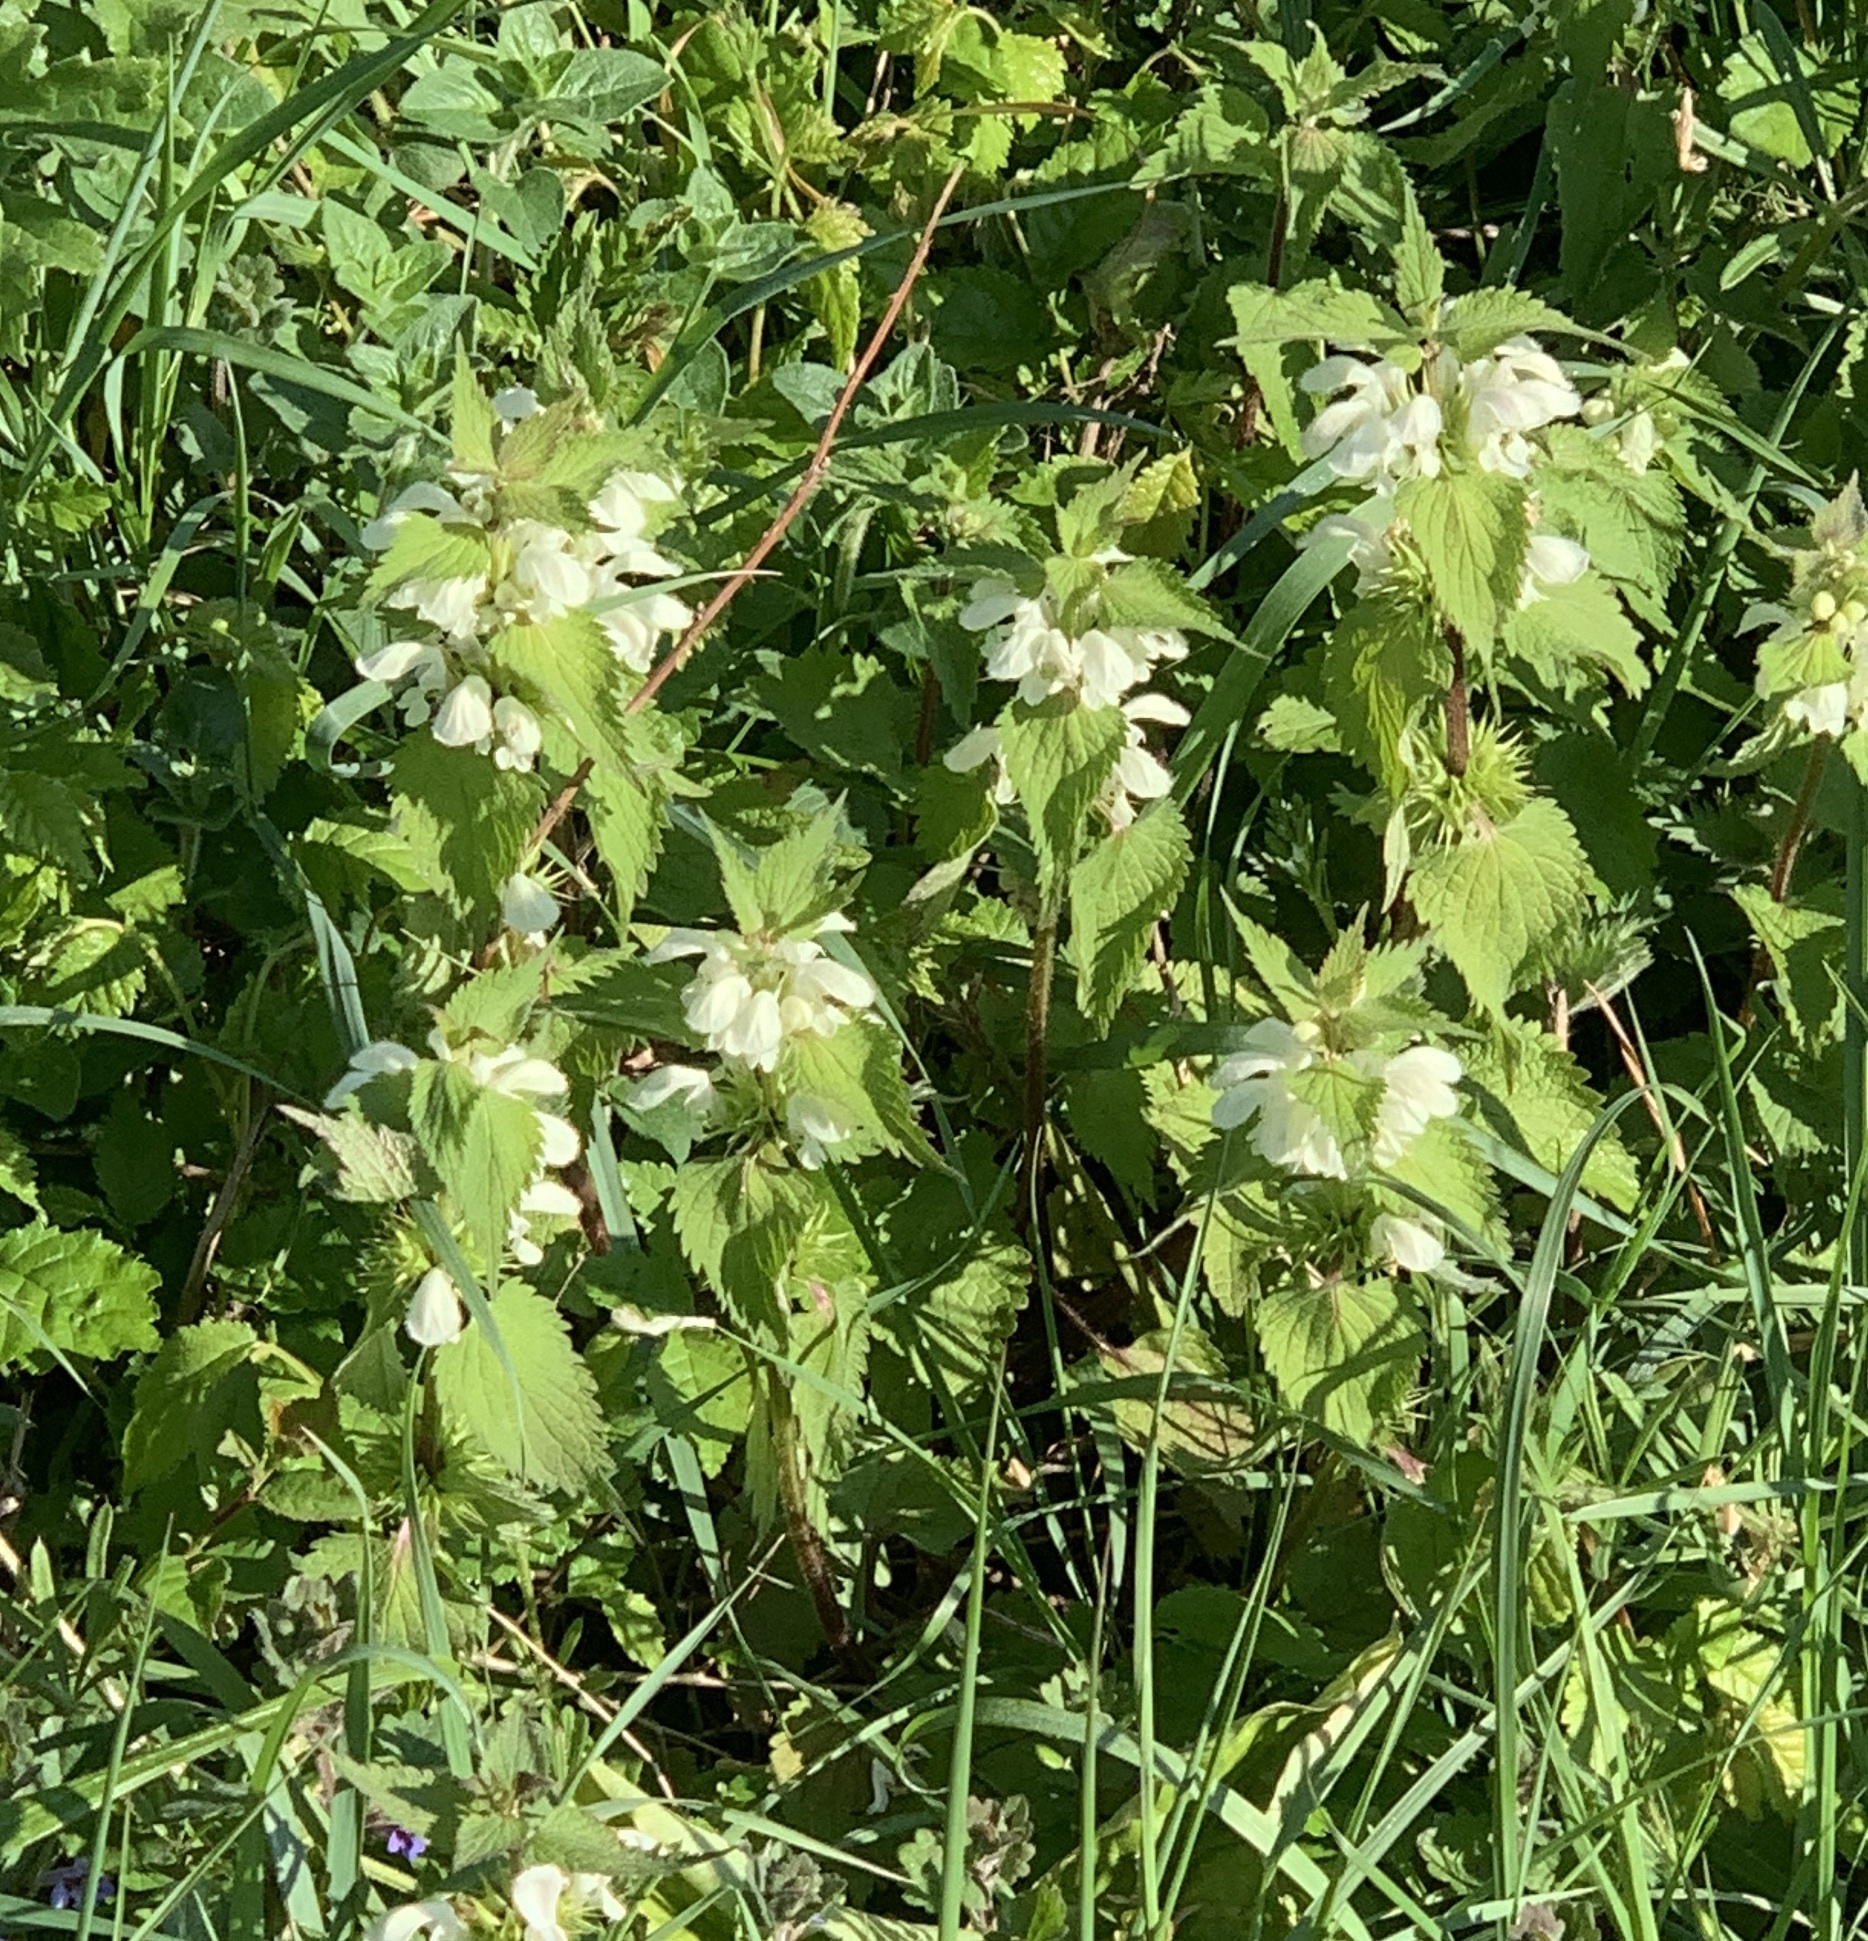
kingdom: Plantae
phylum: Tracheophyta
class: Magnoliopsida
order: Lamiales
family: Lamiaceae
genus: Lamium
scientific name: Lamium album
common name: White dead-nettle
